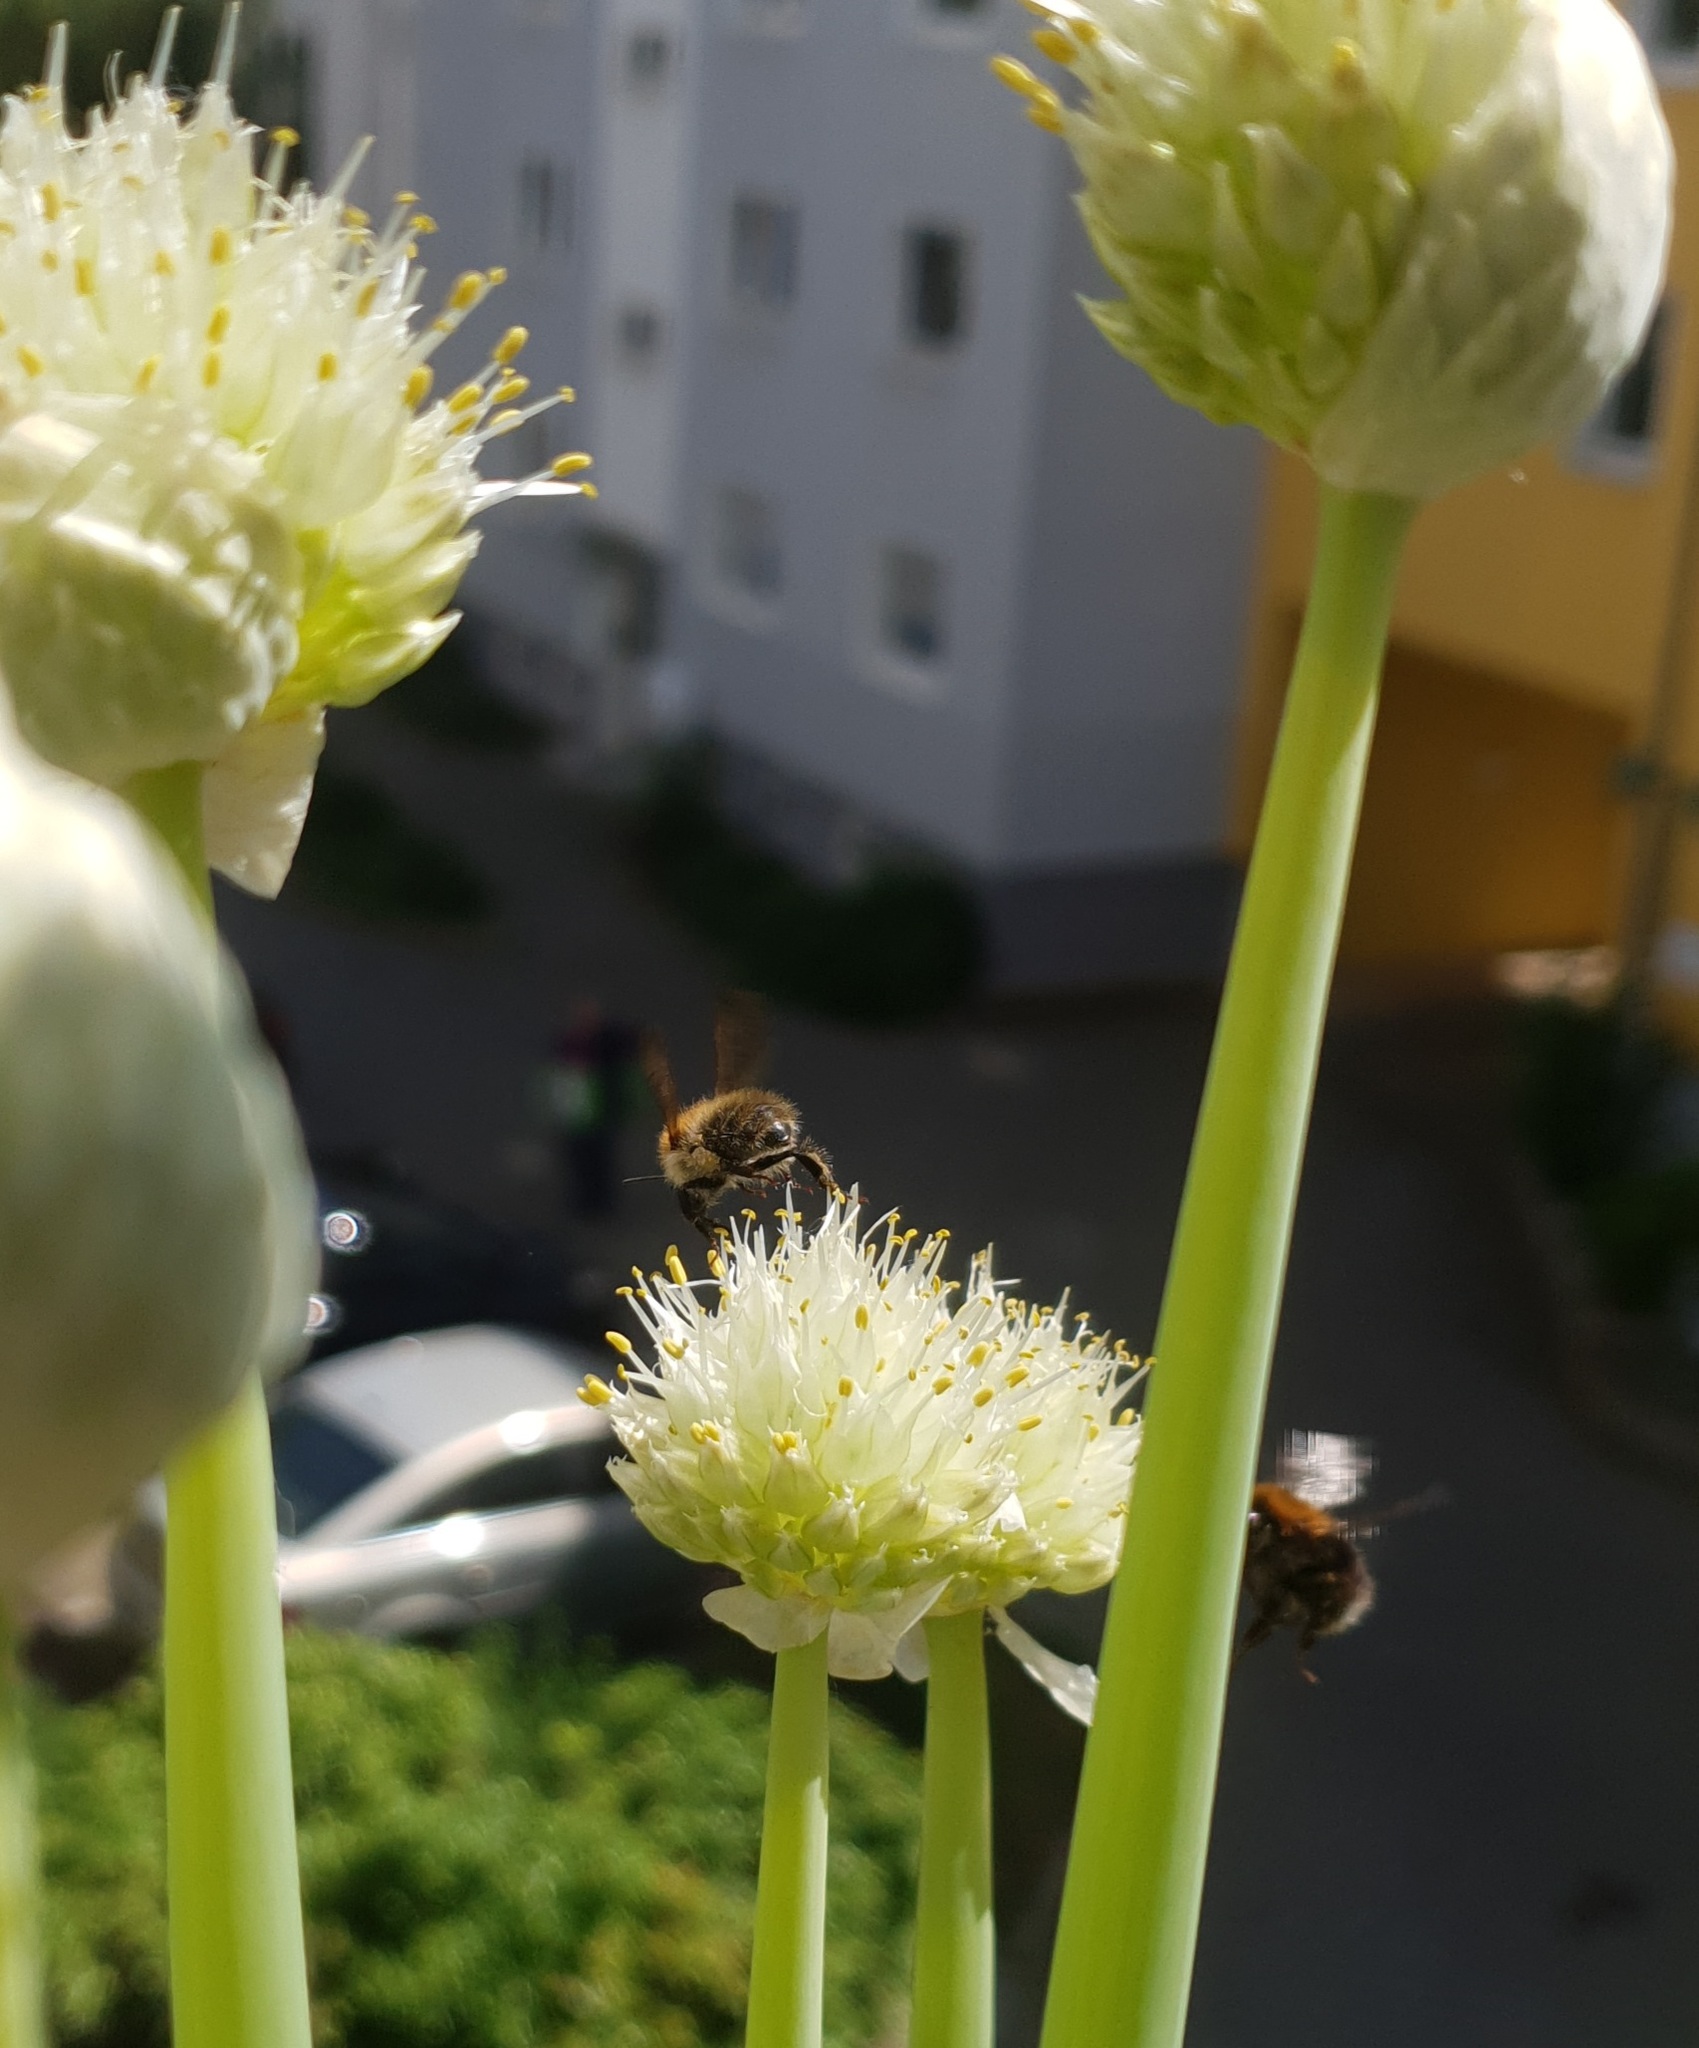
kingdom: Animalia
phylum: Arthropoda
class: Insecta
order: Hymenoptera
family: Apidae
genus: Bombus
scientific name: Bombus pascuorum
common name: Common carder bee
